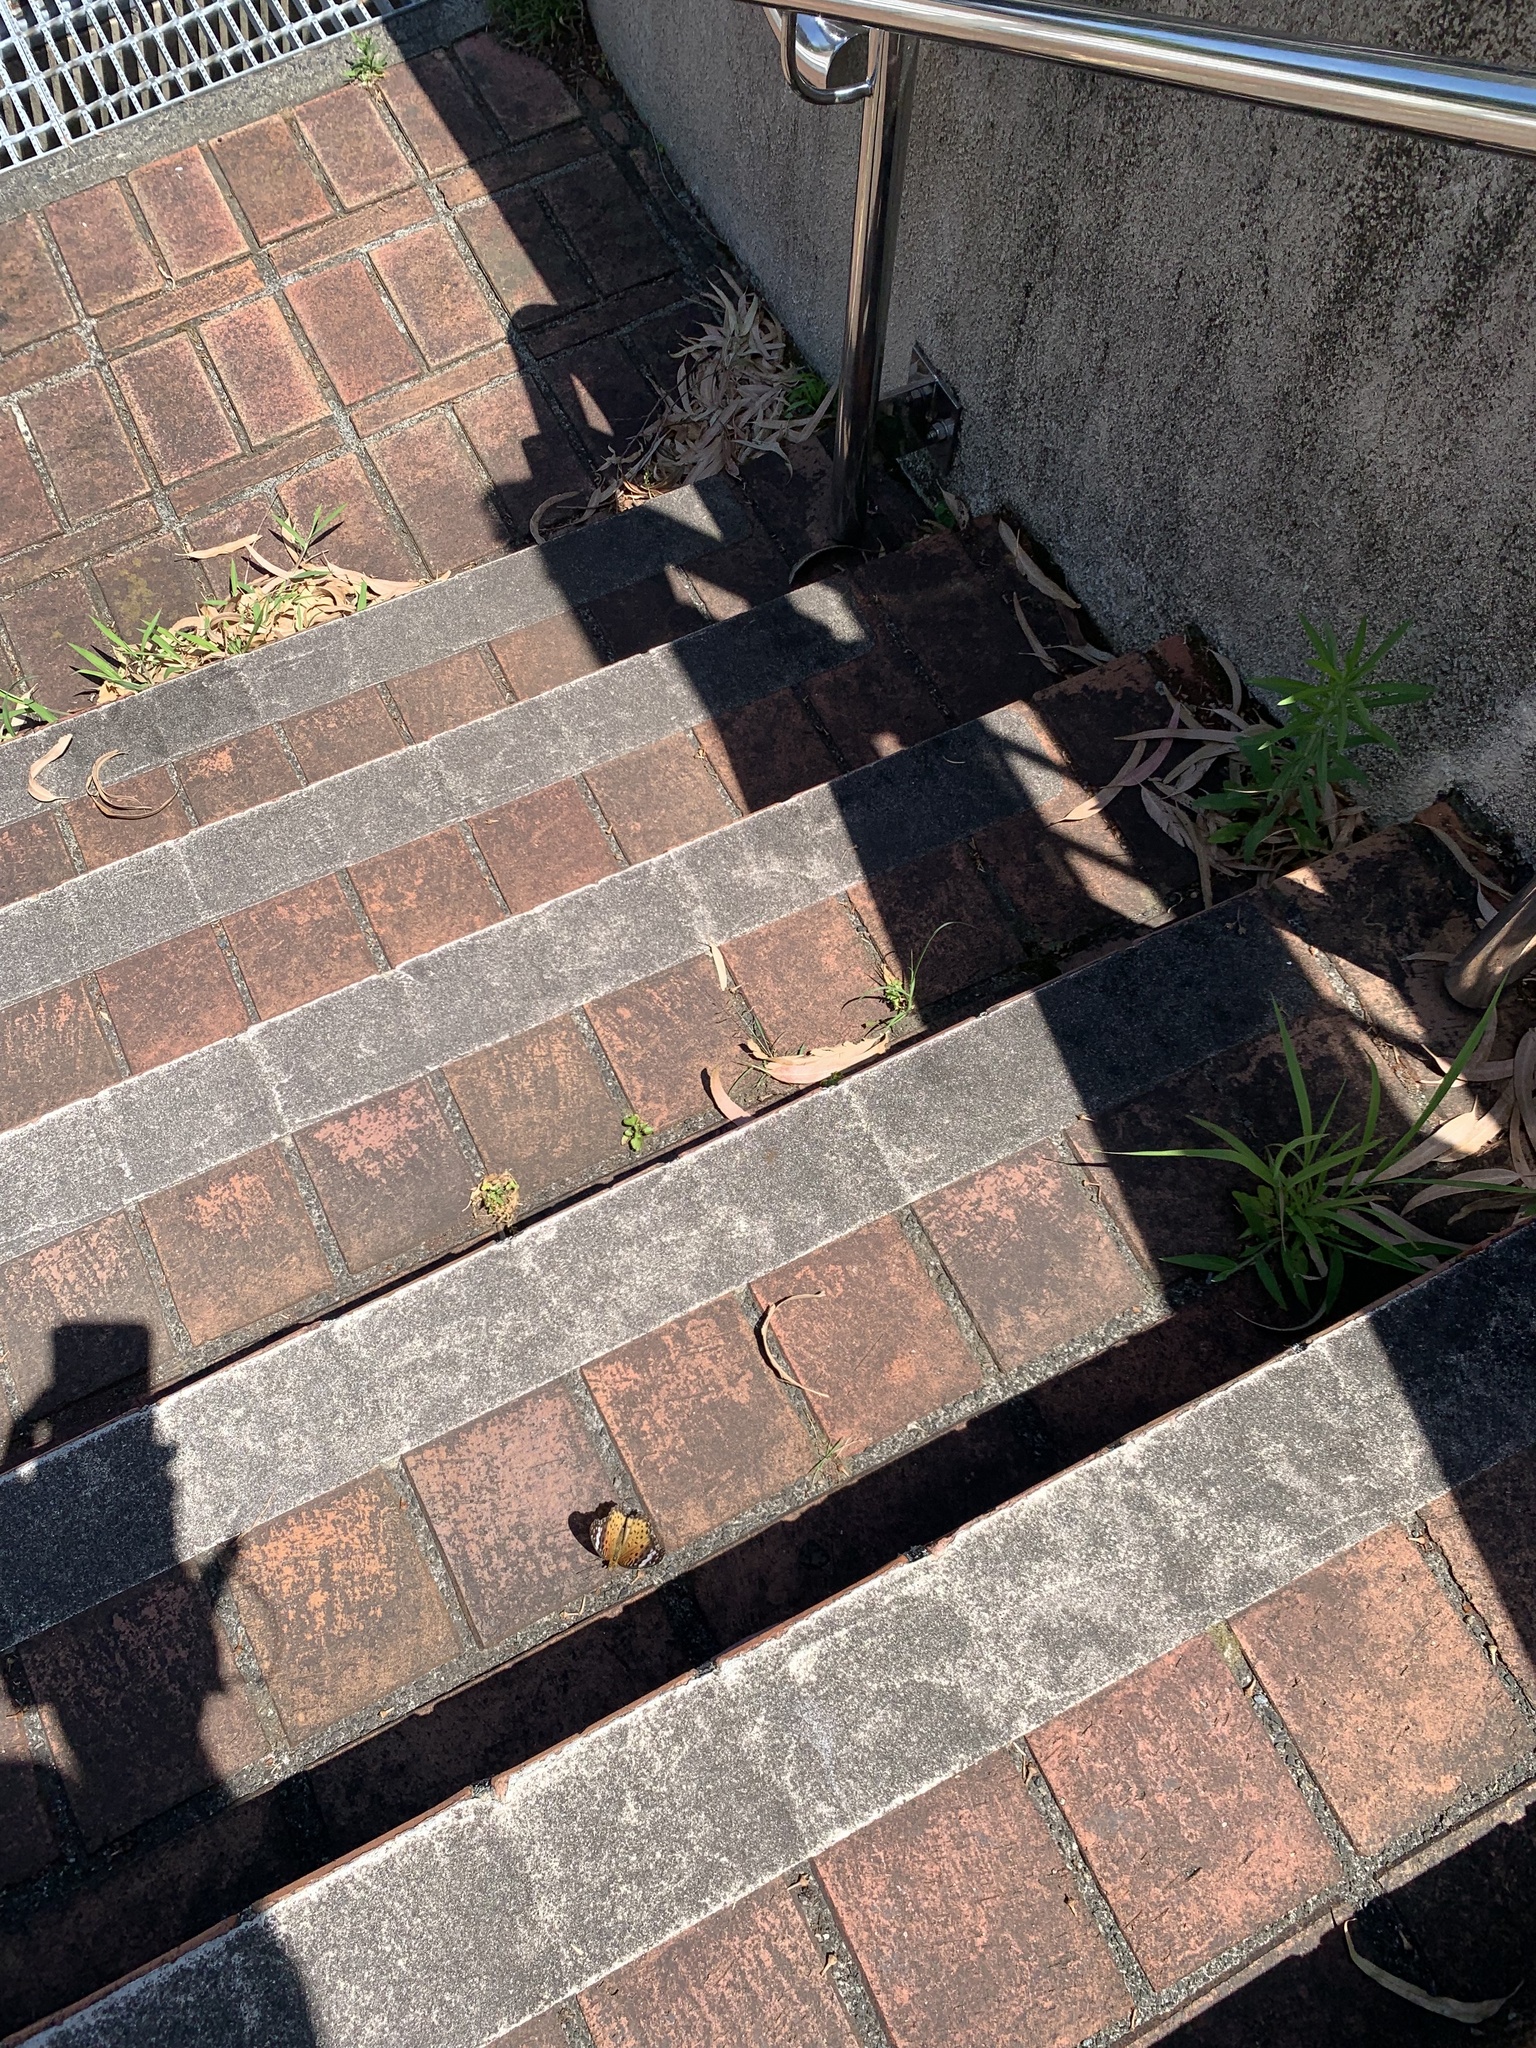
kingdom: Animalia
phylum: Arthropoda
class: Insecta
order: Lepidoptera
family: Nymphalidae
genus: Argynnis
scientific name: Argynnis hyperbius
